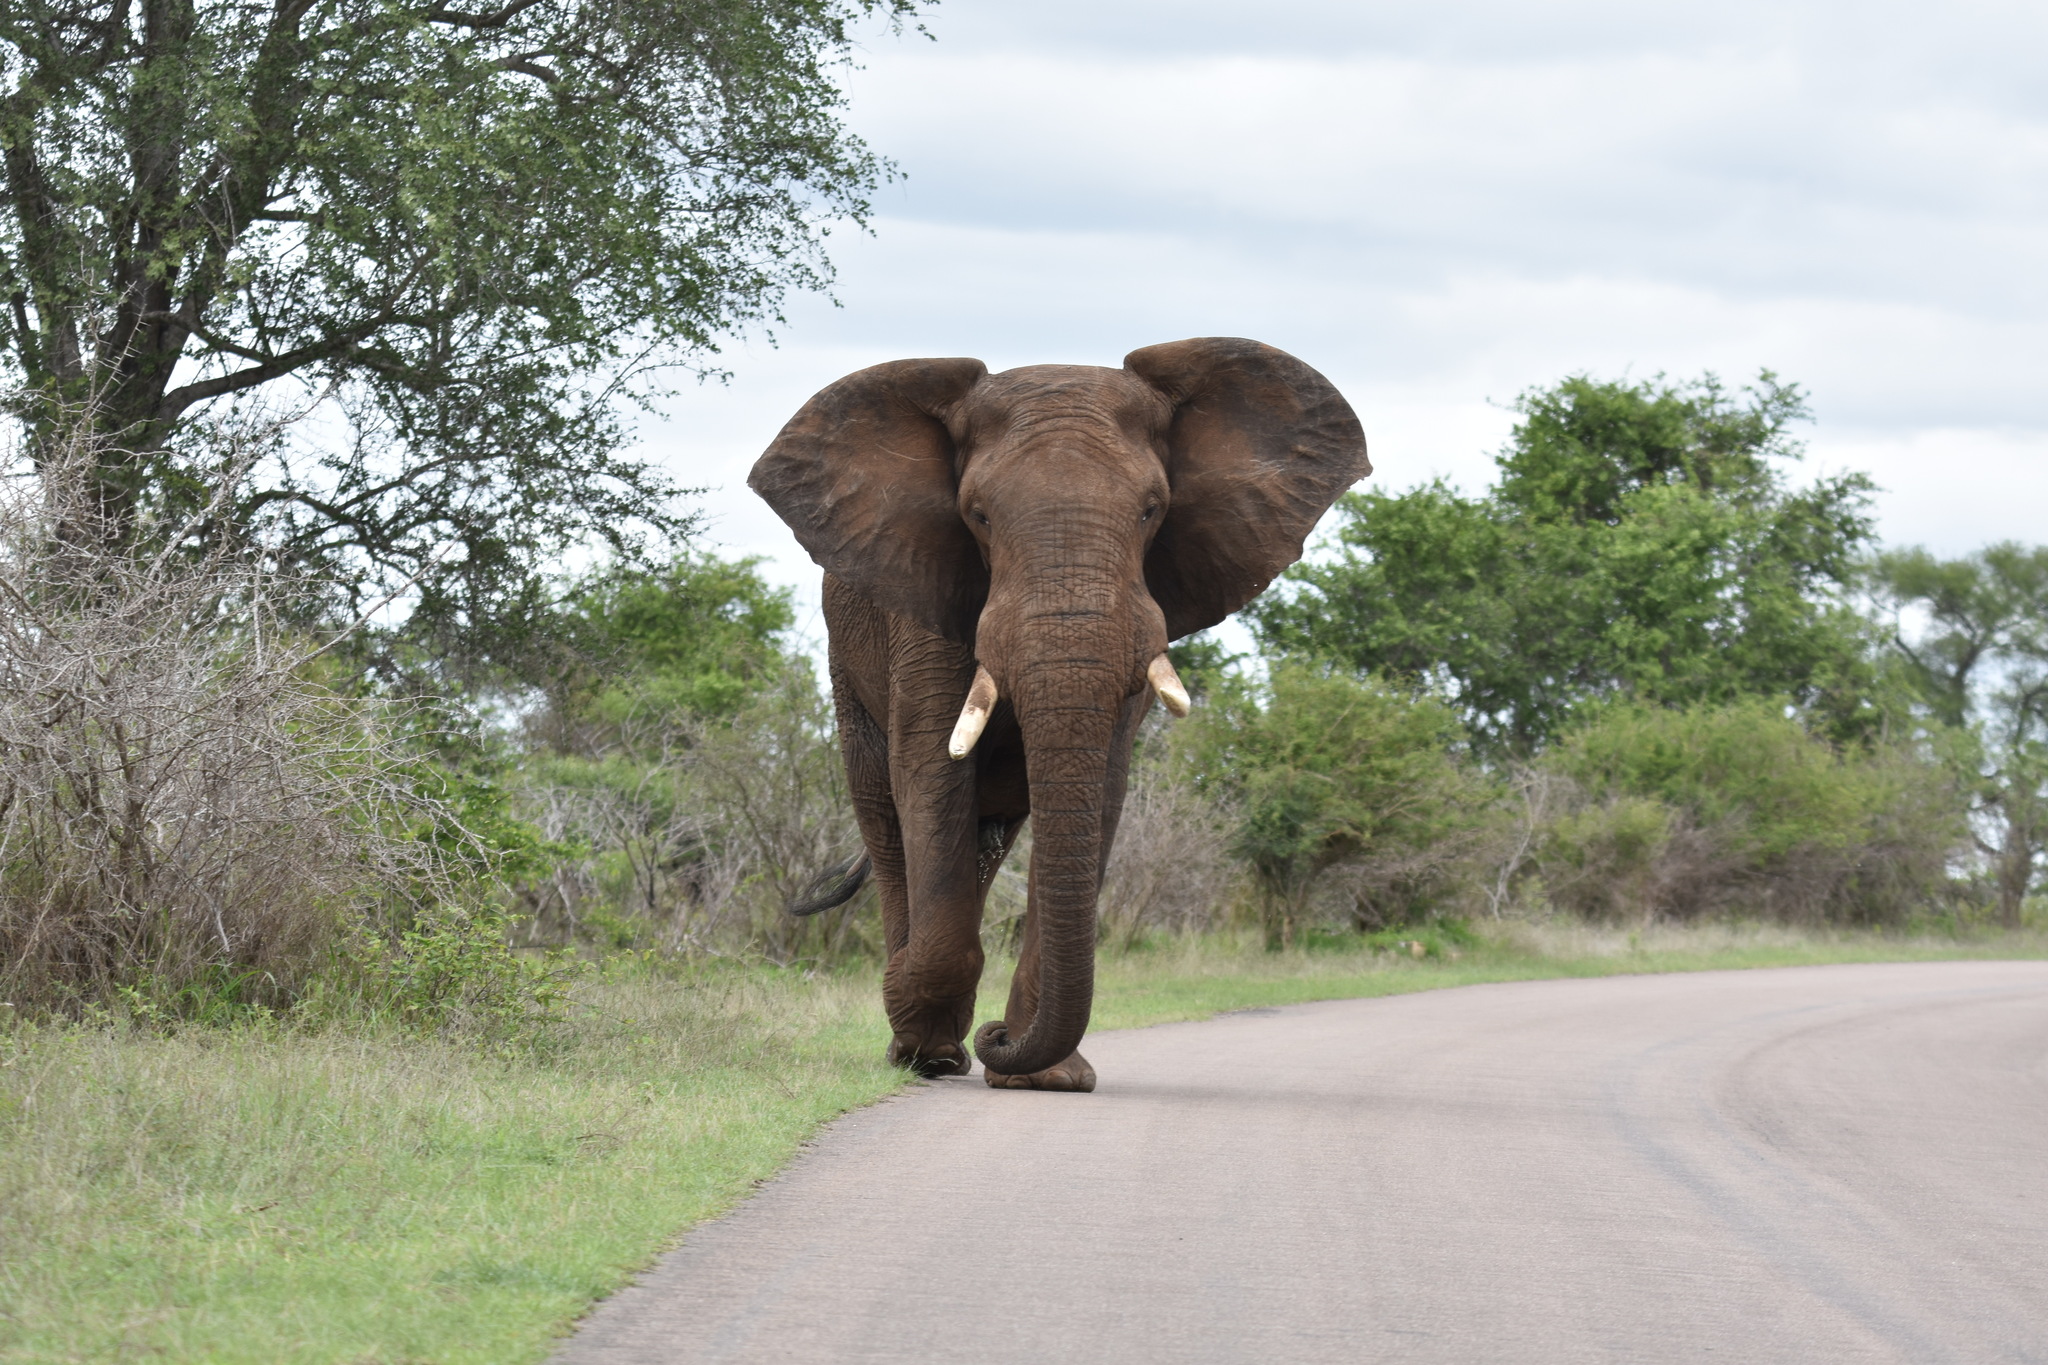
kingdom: Animalia
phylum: Chordata
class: Mammalia
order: Proboscidea
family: Elephantidae
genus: Loxodonta
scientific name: Loxodonta africana
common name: African elephant
